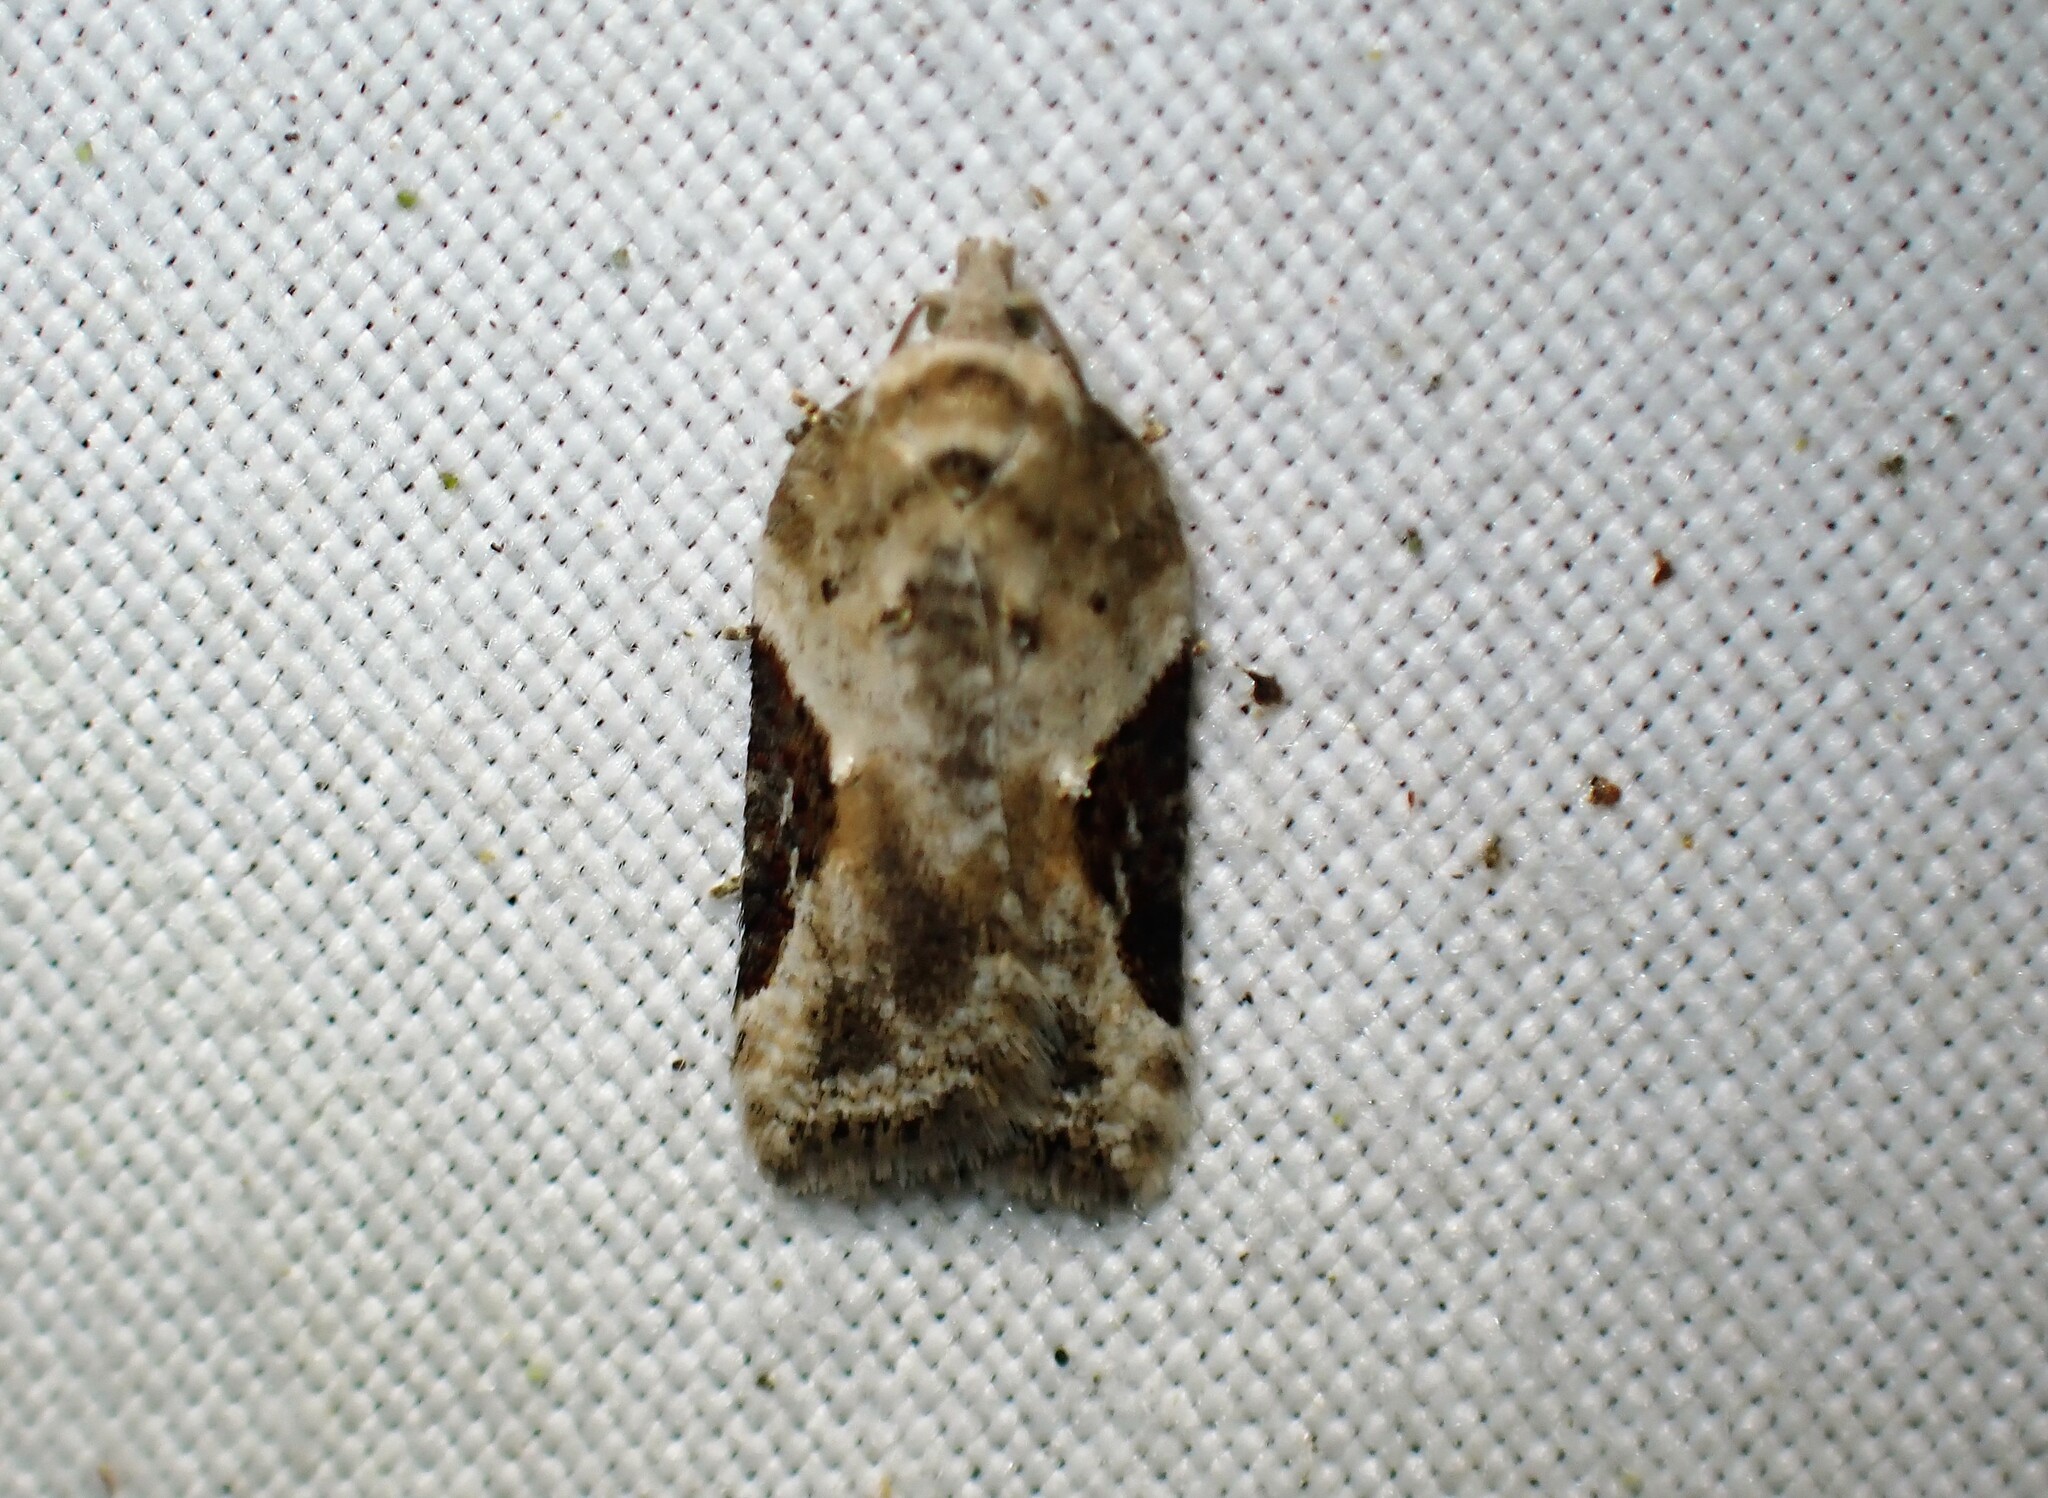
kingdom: Animalia
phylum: Arthropoda
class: Insecta
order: Lepidoptera
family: Tortricidae
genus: Acleris
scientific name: Acleris forbesana
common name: Forbes' acleris moth
